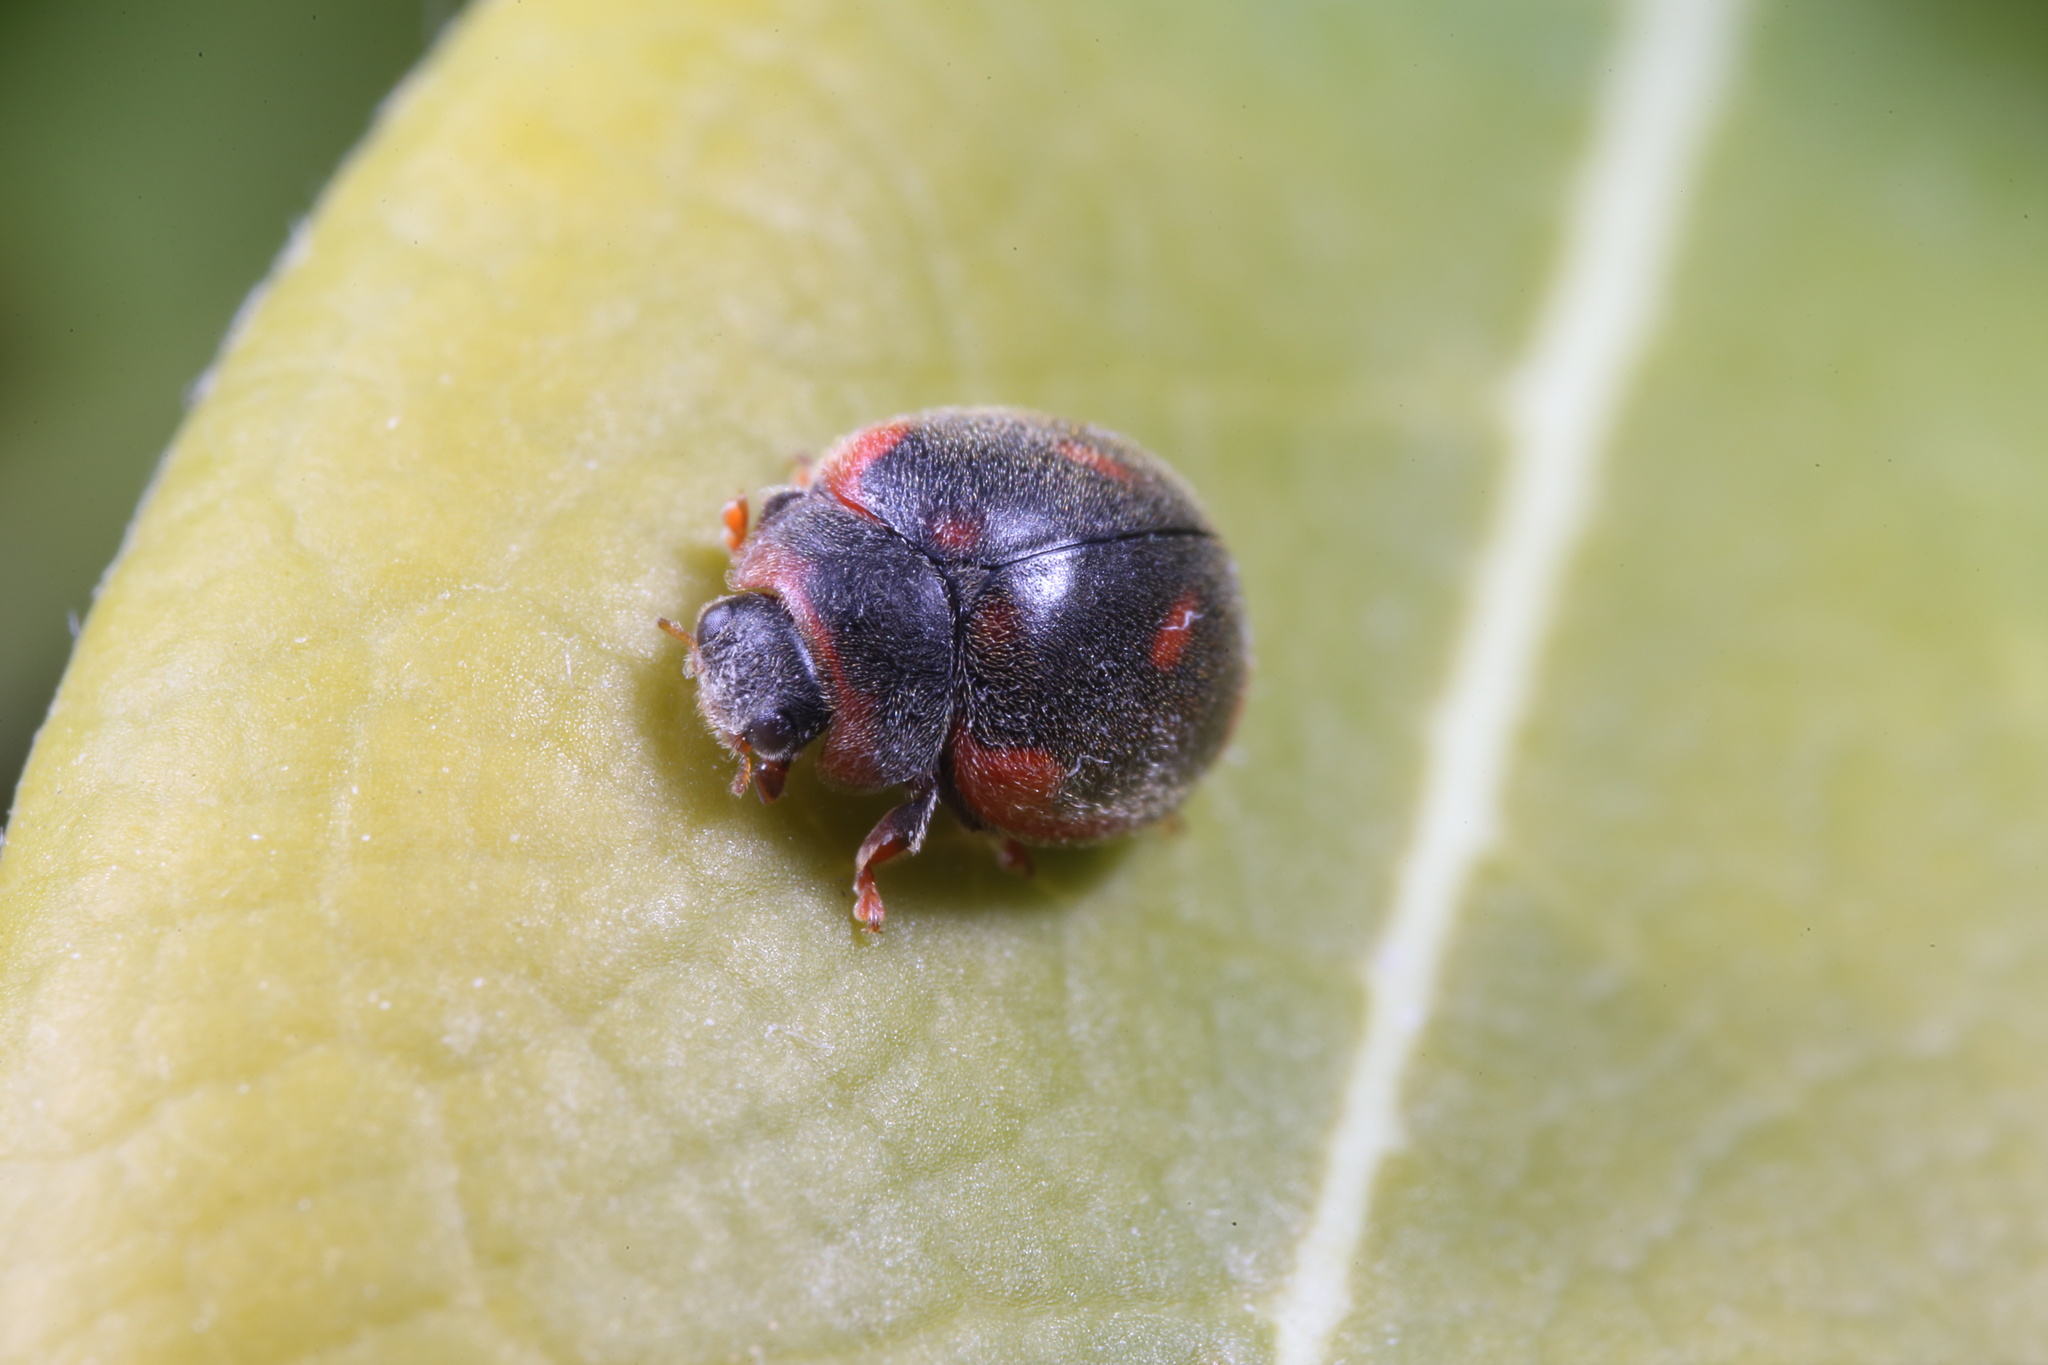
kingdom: Animalia
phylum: Arthropoda
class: Insecta
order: Coleoptera
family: Coccinellidae
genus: Novius
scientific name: Novius cardinalis
